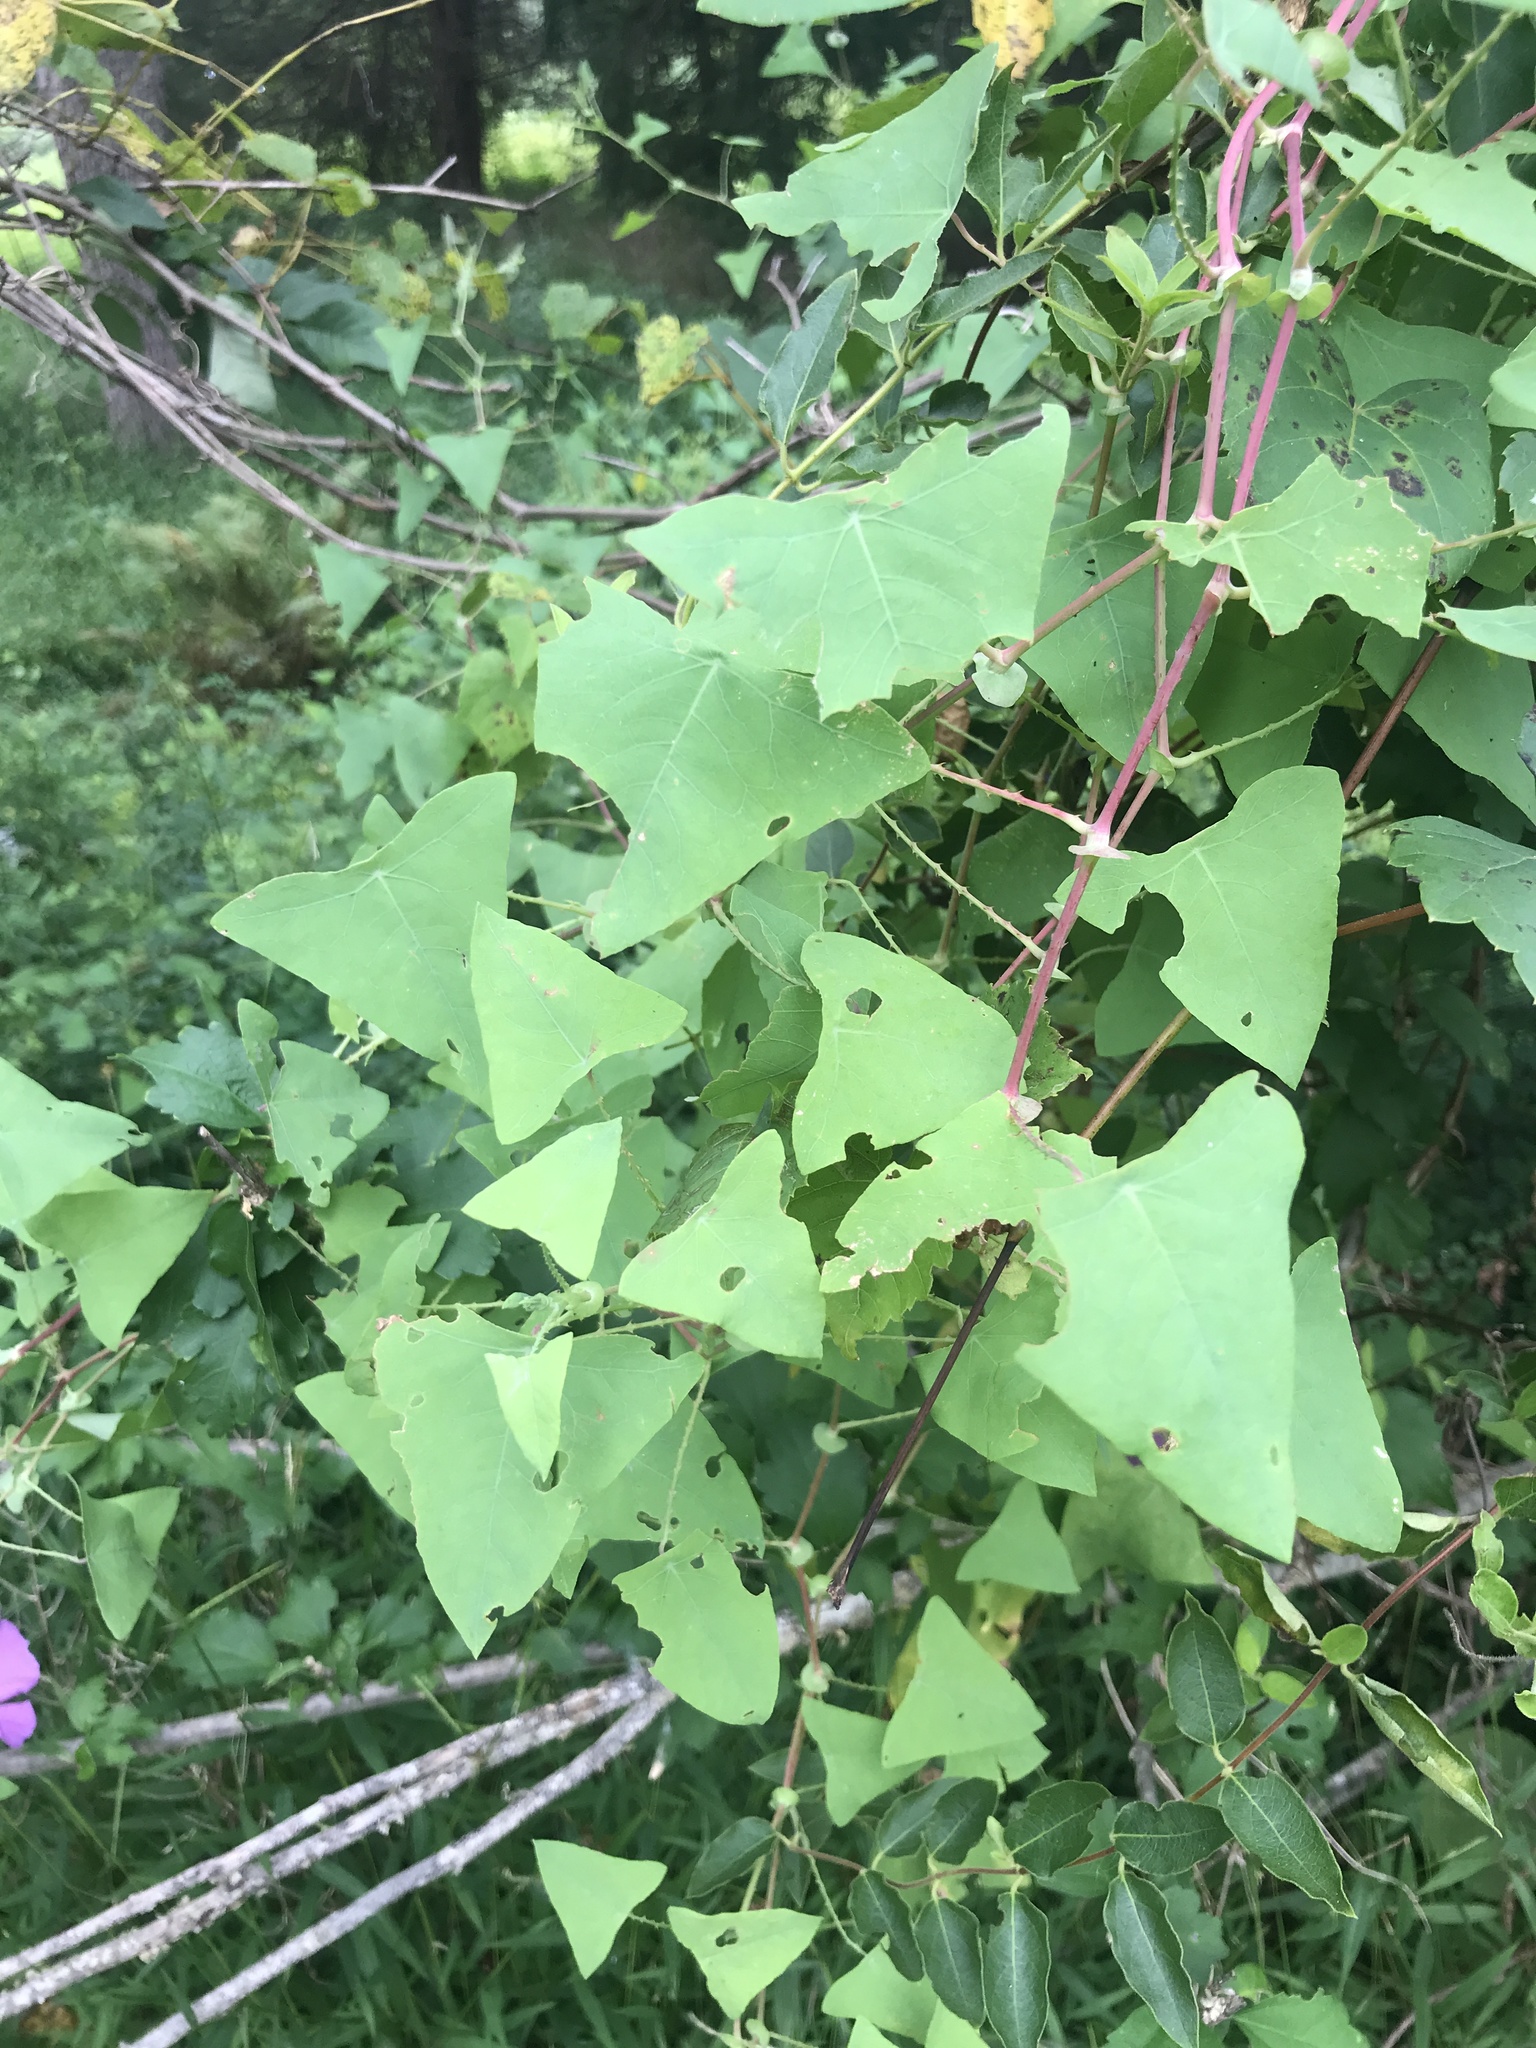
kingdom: Plantae
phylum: Tracheophyta
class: Magnoliopsida
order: Caryophyllales
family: Polygonaceae
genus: Persicaria
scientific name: Persicaria perfoliata
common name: Asiatic tearthumb
